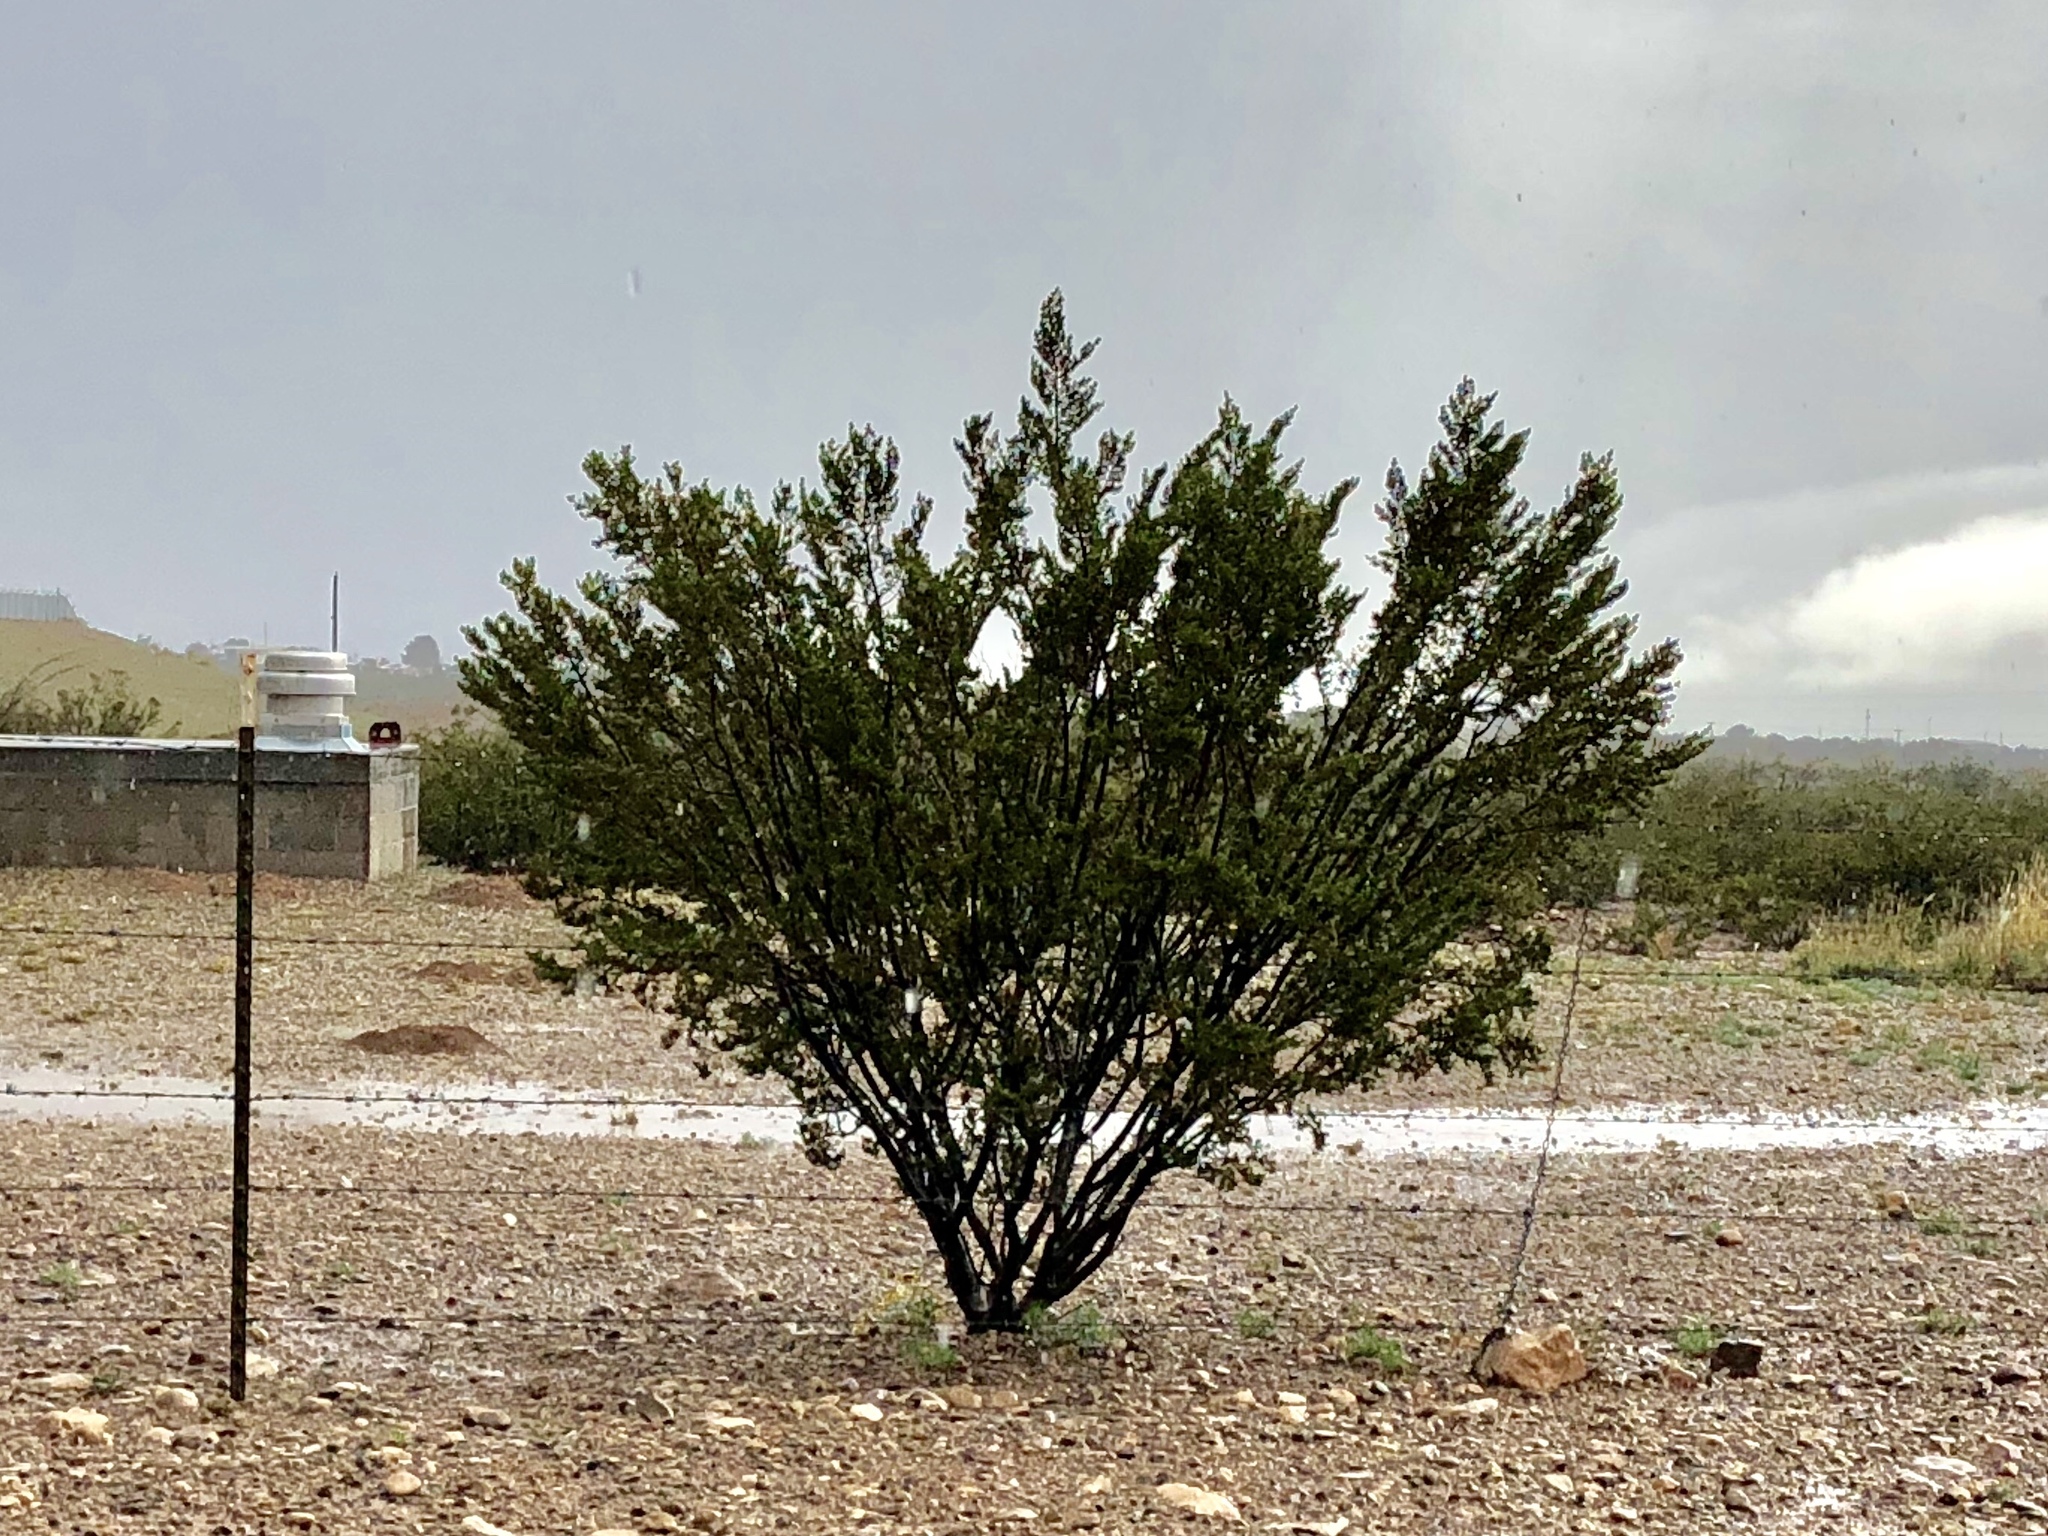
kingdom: Plantae
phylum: Tracheophyta
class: Magnoliopsida
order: Zygophyllales
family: Zygophyllaceae
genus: Larrea
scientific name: Larrea tridentata
